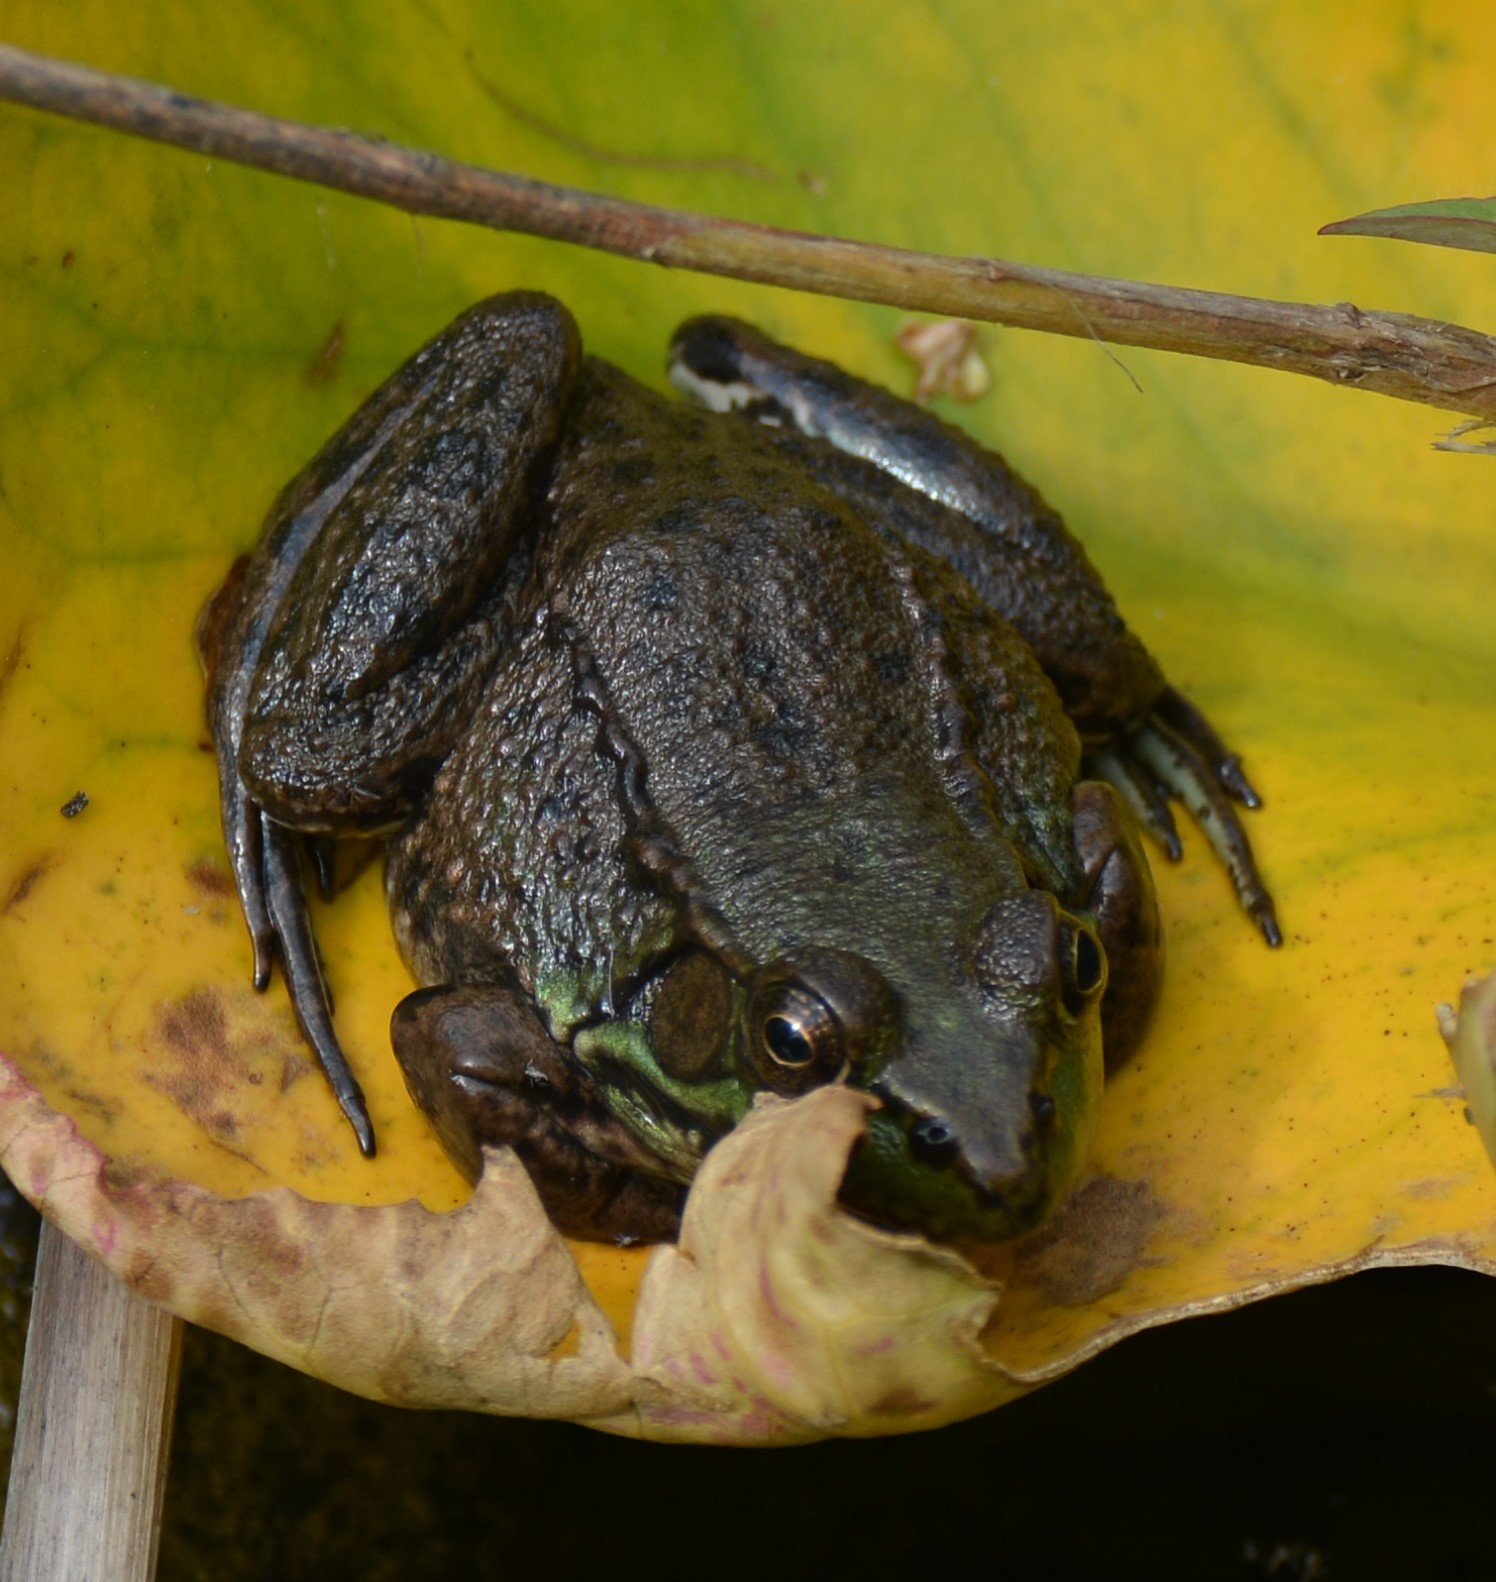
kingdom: Animalia
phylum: Chordata
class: Amphibia
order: Anura
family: Ranidae
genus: Lithobates
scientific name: Lithobates clamitans
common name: Green frog
